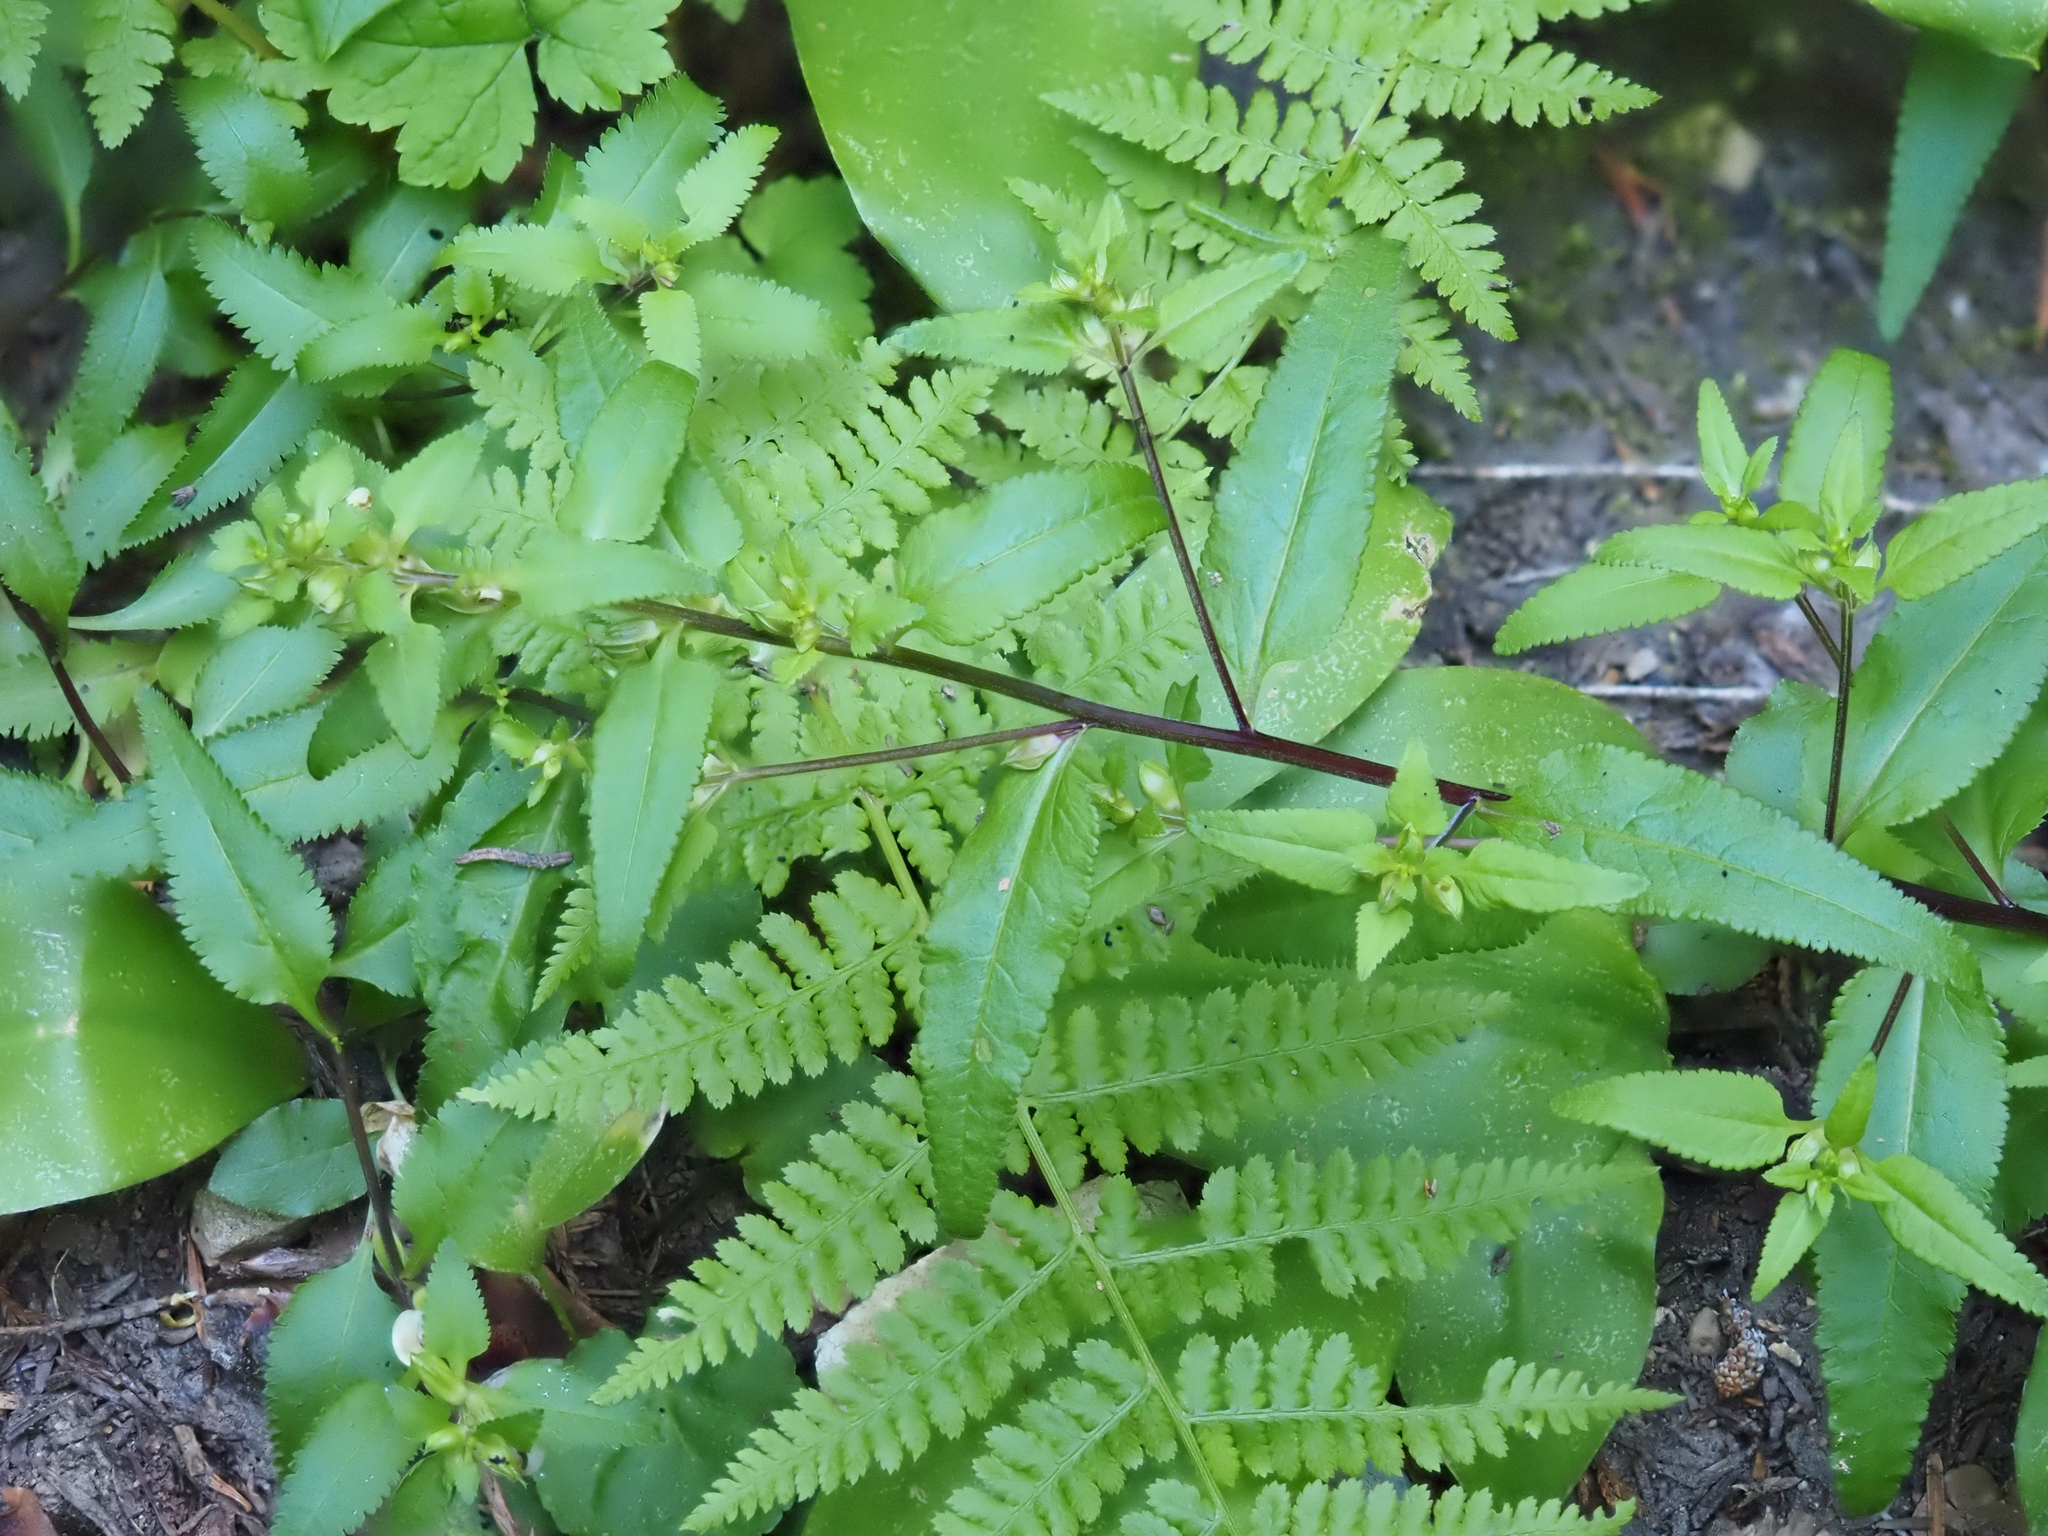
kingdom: Plantae
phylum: Tracheophyta
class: Magnoliopsida
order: Lamiales
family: Orobanchaceae
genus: Pedicularis
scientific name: Pedicularis racemosa
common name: Leafy lousewort
